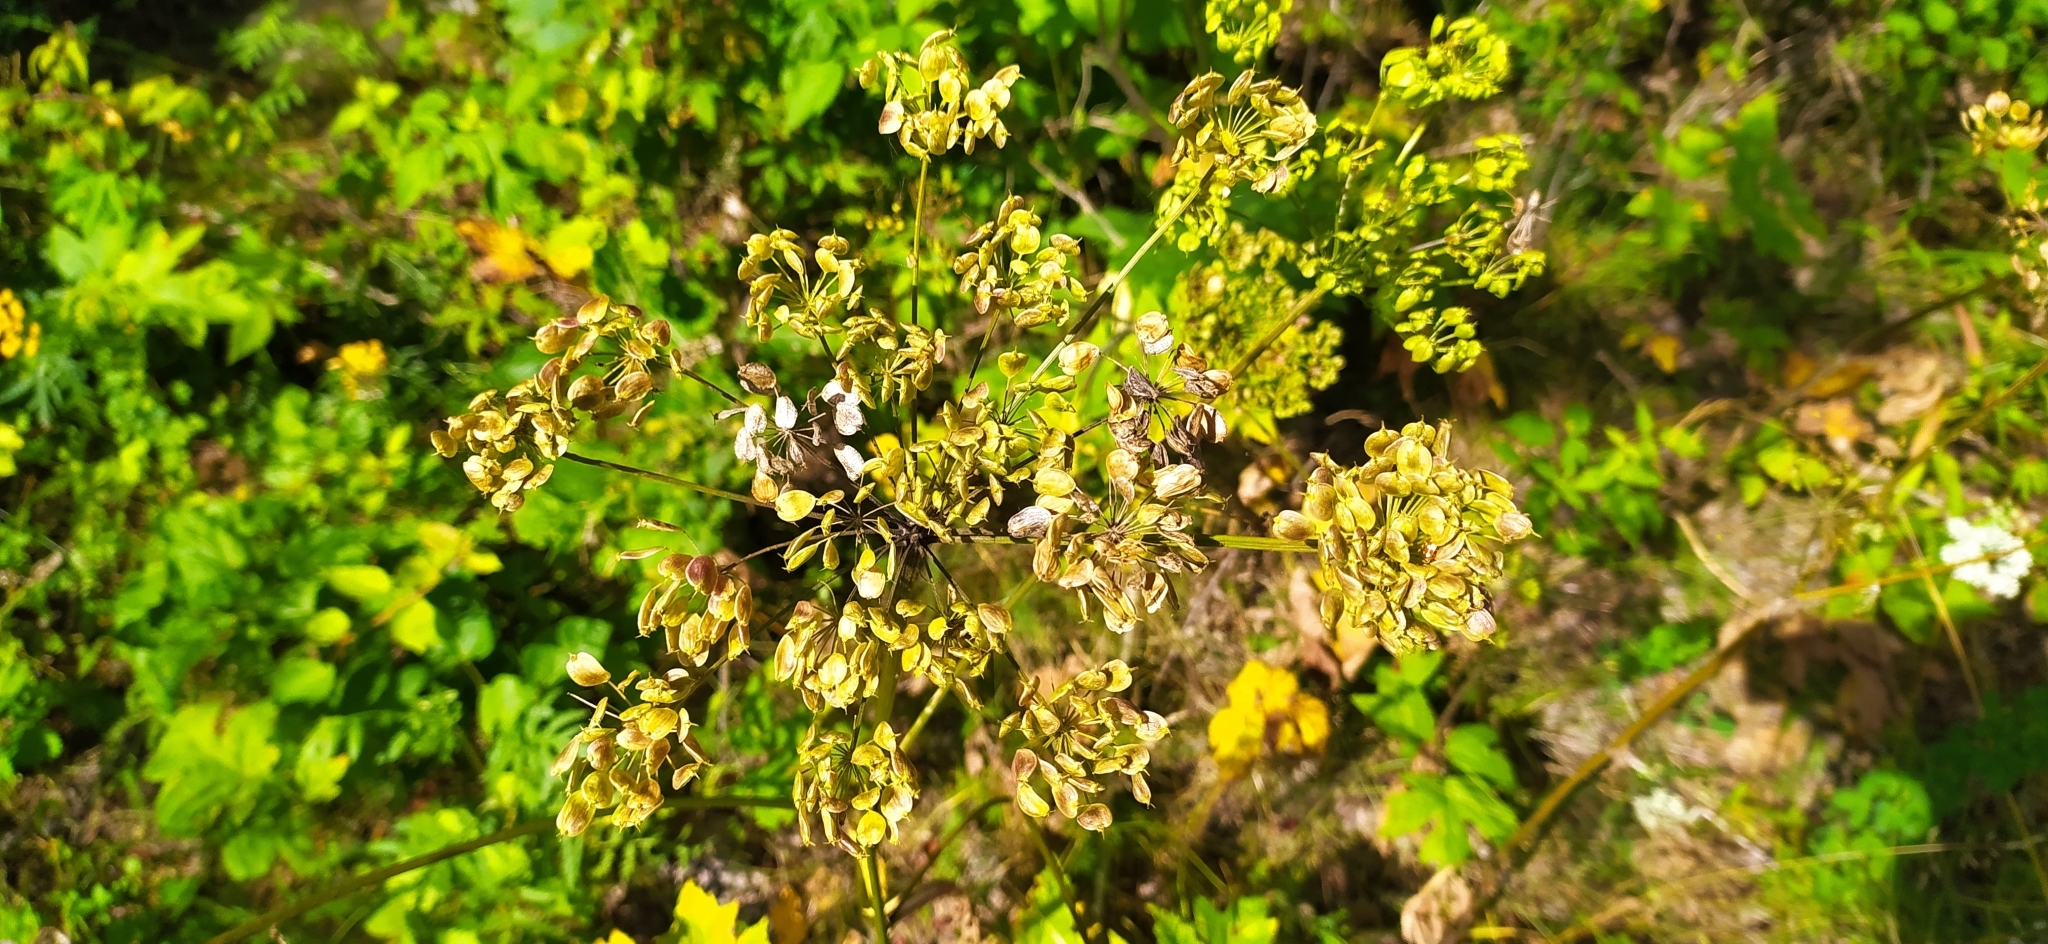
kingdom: Plantae
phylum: Tracheophyta
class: Magnoliopsida
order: Apiales
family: Apiaceae
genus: Heracleum
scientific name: Heracleum sphondylium
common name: Hogweed
